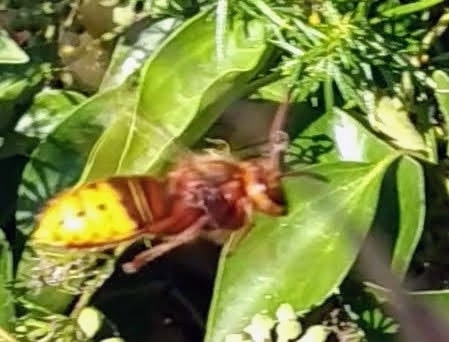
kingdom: Animalia
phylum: Arthropoda
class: Insecta
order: Hymenoptera
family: Vespidae
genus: Vespa
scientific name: Vespa crabro
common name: Hornet
